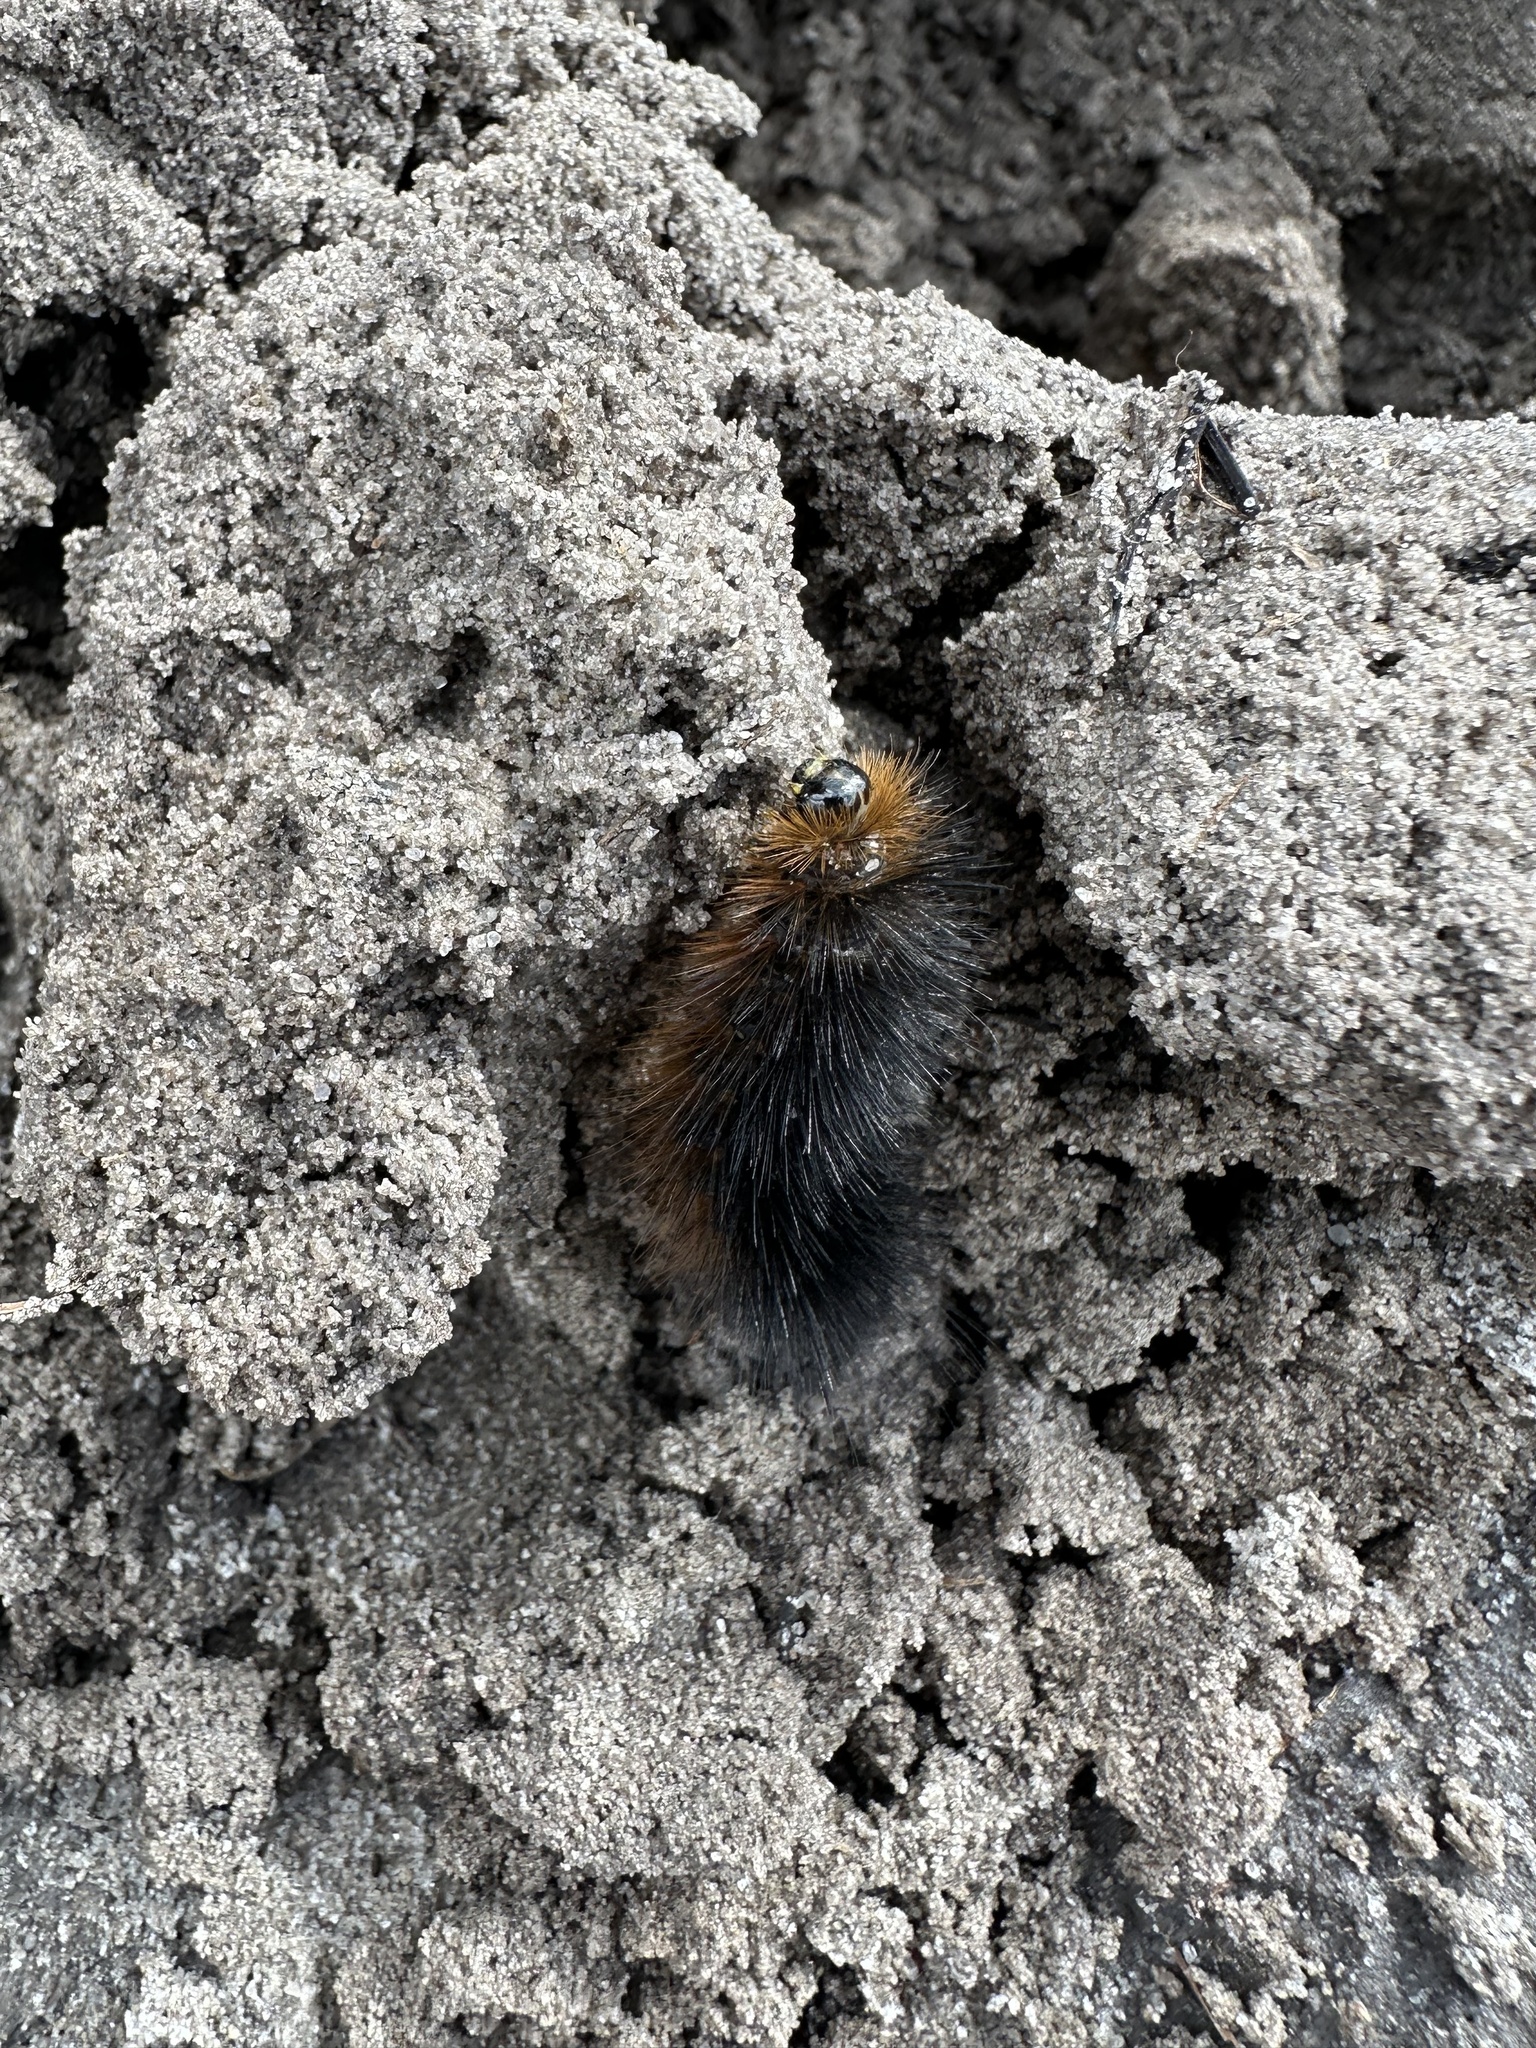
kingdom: Animalia
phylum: Arthropoda
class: Insecta
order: Lepidoptera
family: Erebidae
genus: Estigmene
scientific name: Estigmene acrea
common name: Salt marsh moth
